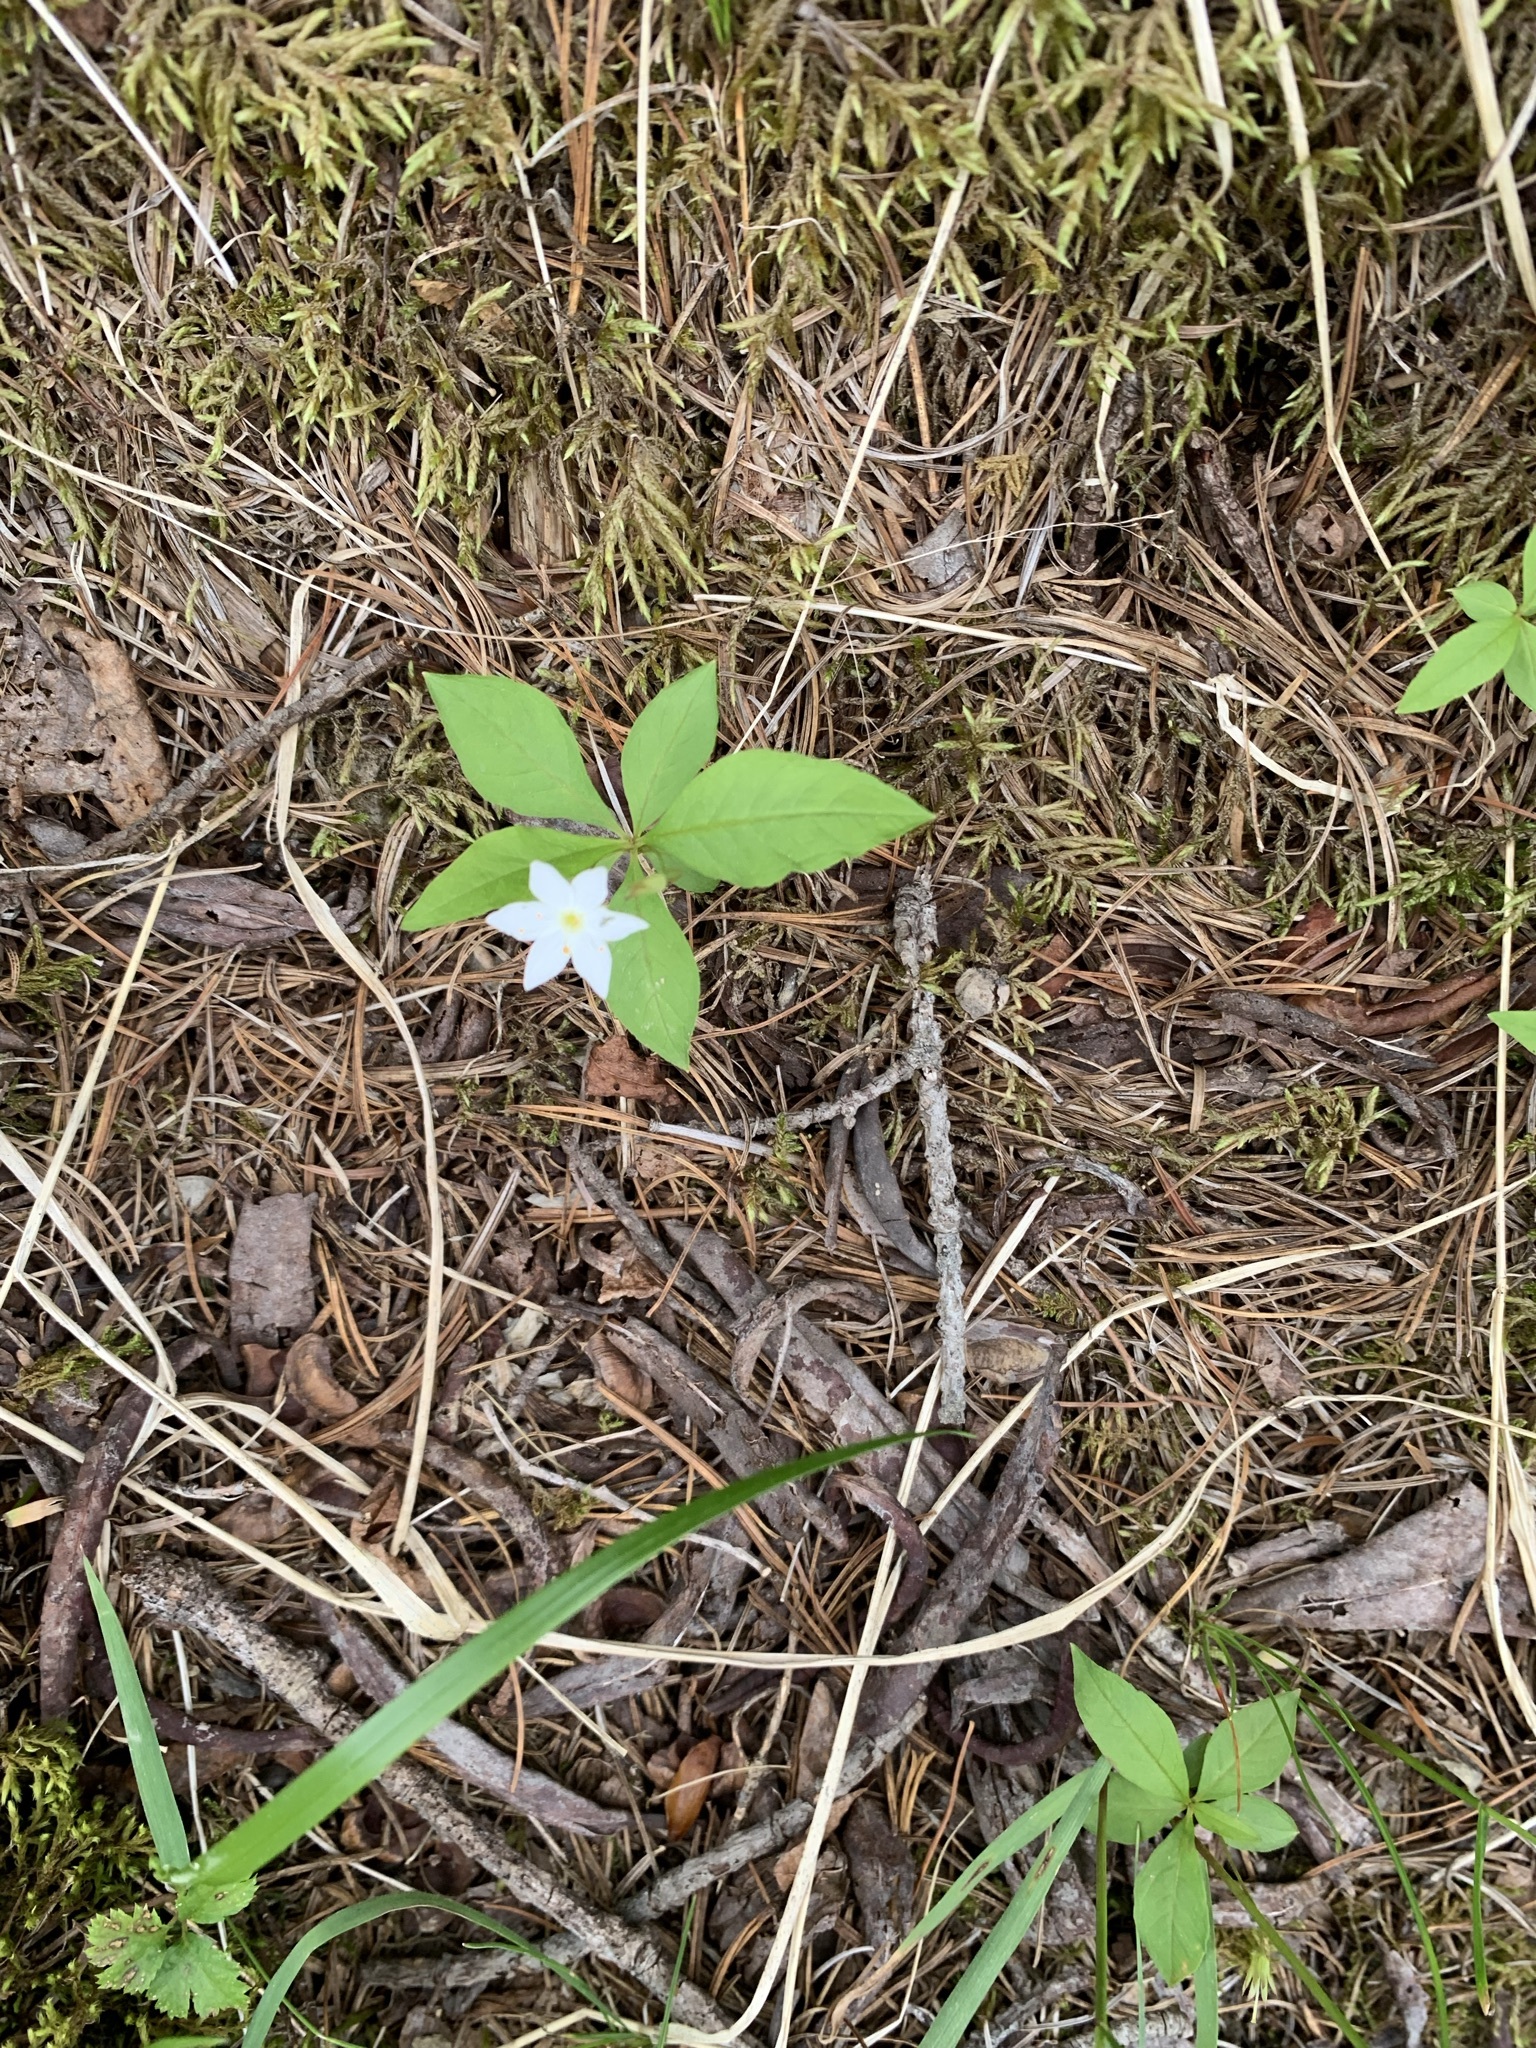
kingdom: Plantae
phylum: Tracheophyta
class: Magnoliopsida
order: Ericales
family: Primulaceae
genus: Lysimachia
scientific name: Lysimachia europaea
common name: Arctic starflower
